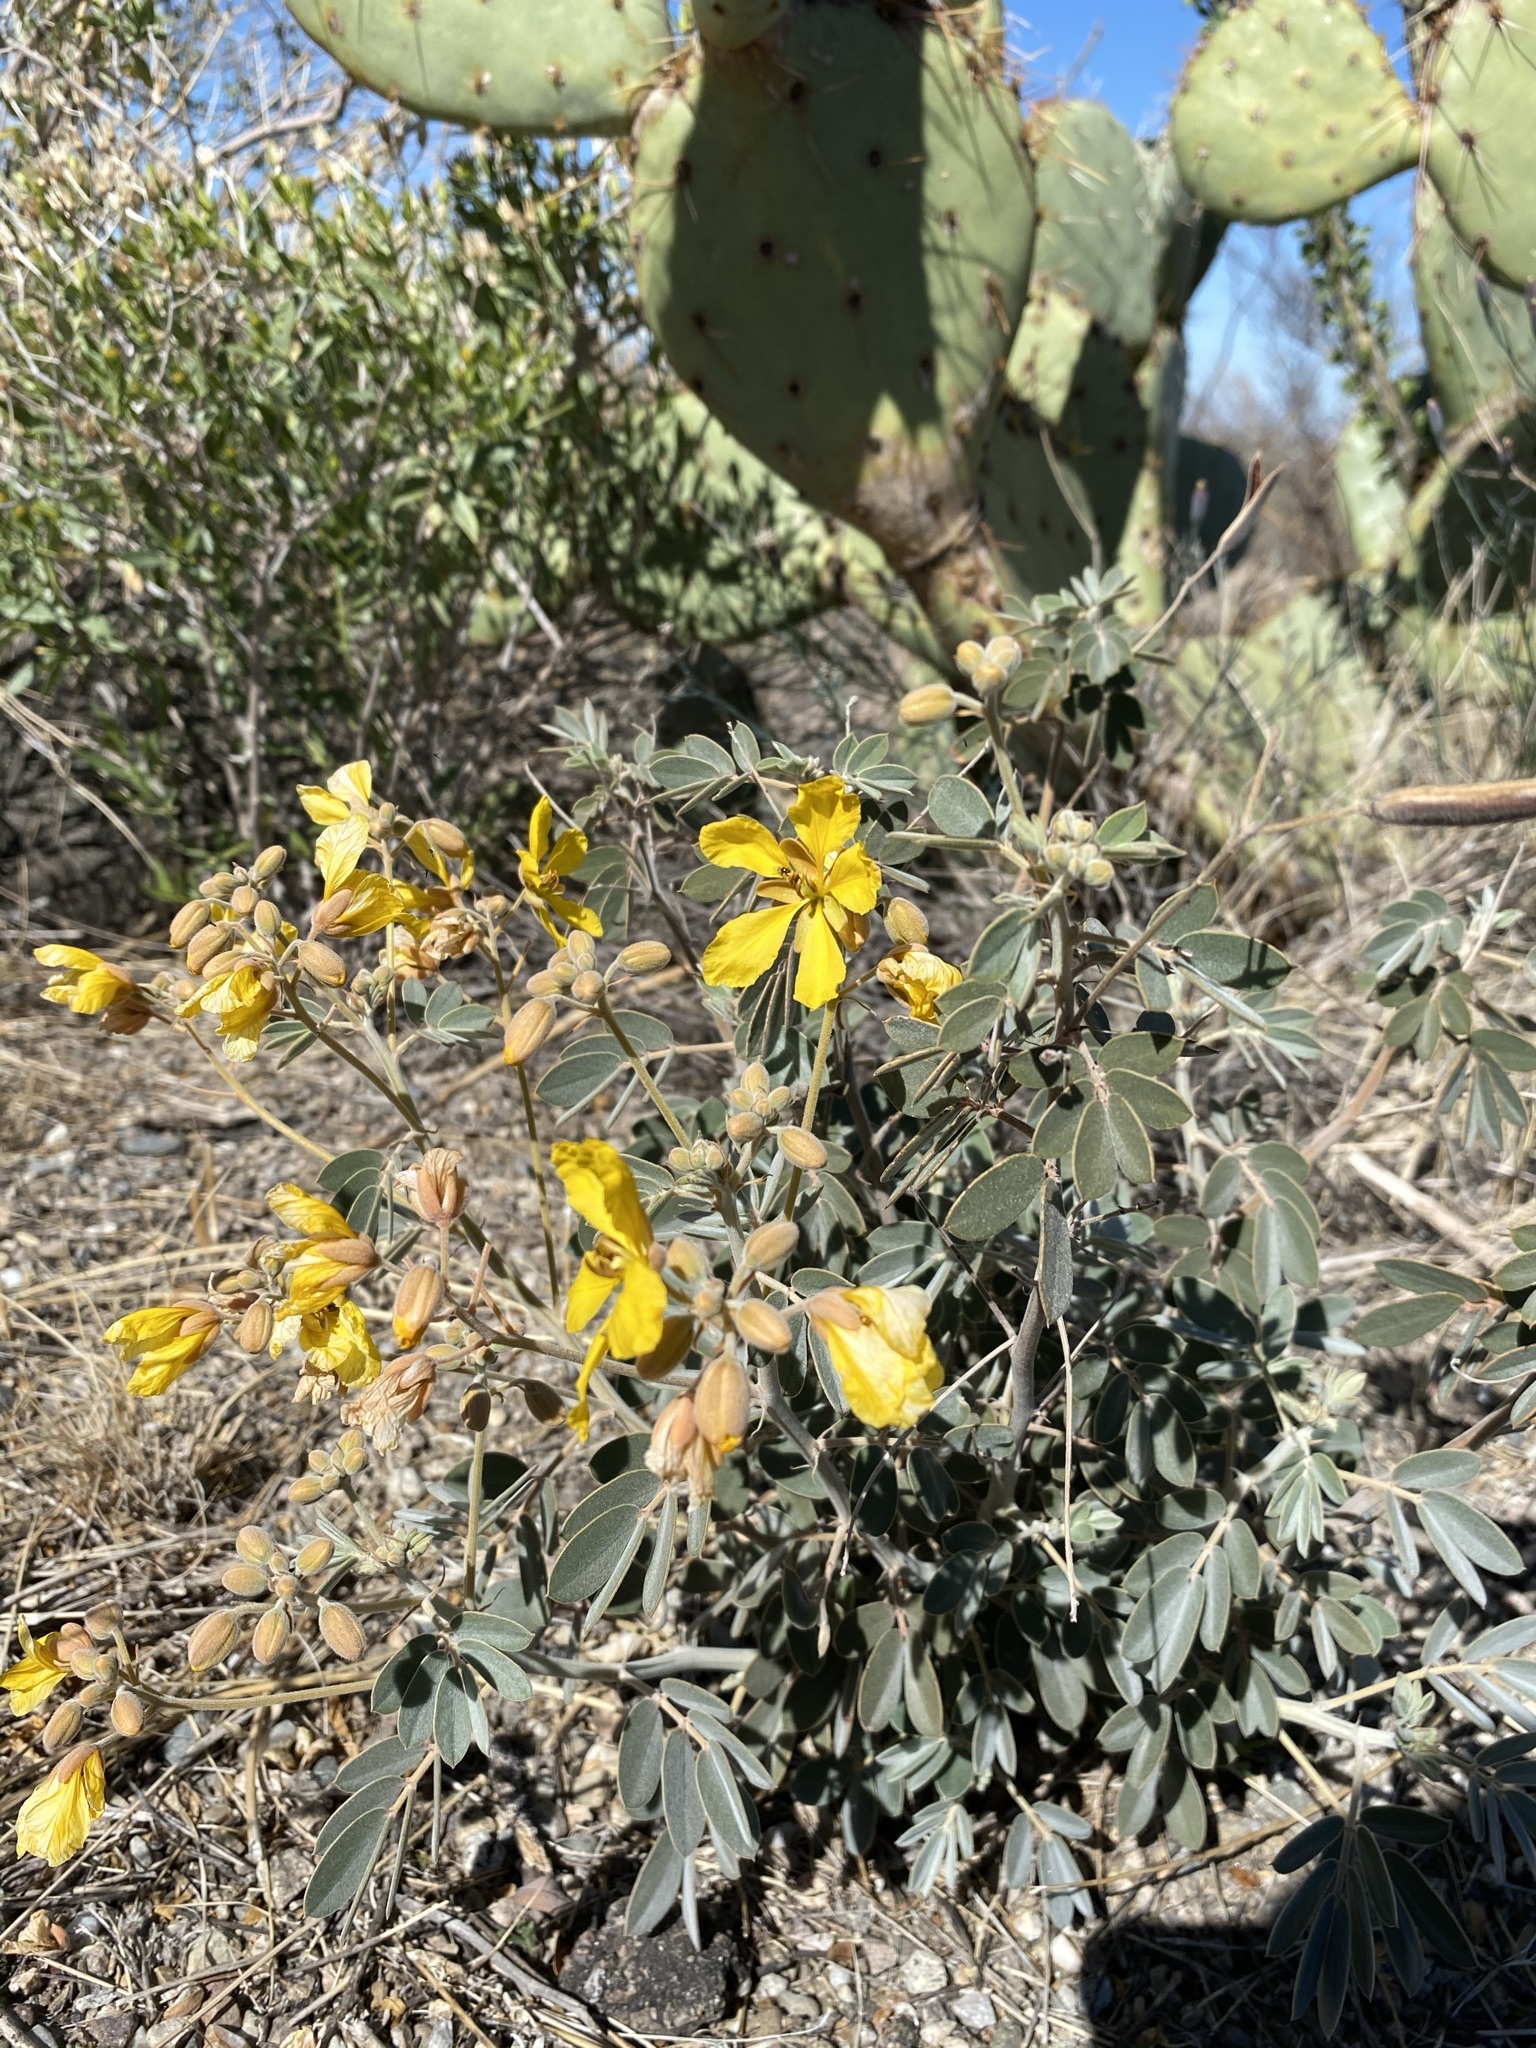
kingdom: Plantae
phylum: Tracheophyta
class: Magnoliopsida
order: Fabales
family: Fabaceae
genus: Senna
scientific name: Senna covesii
